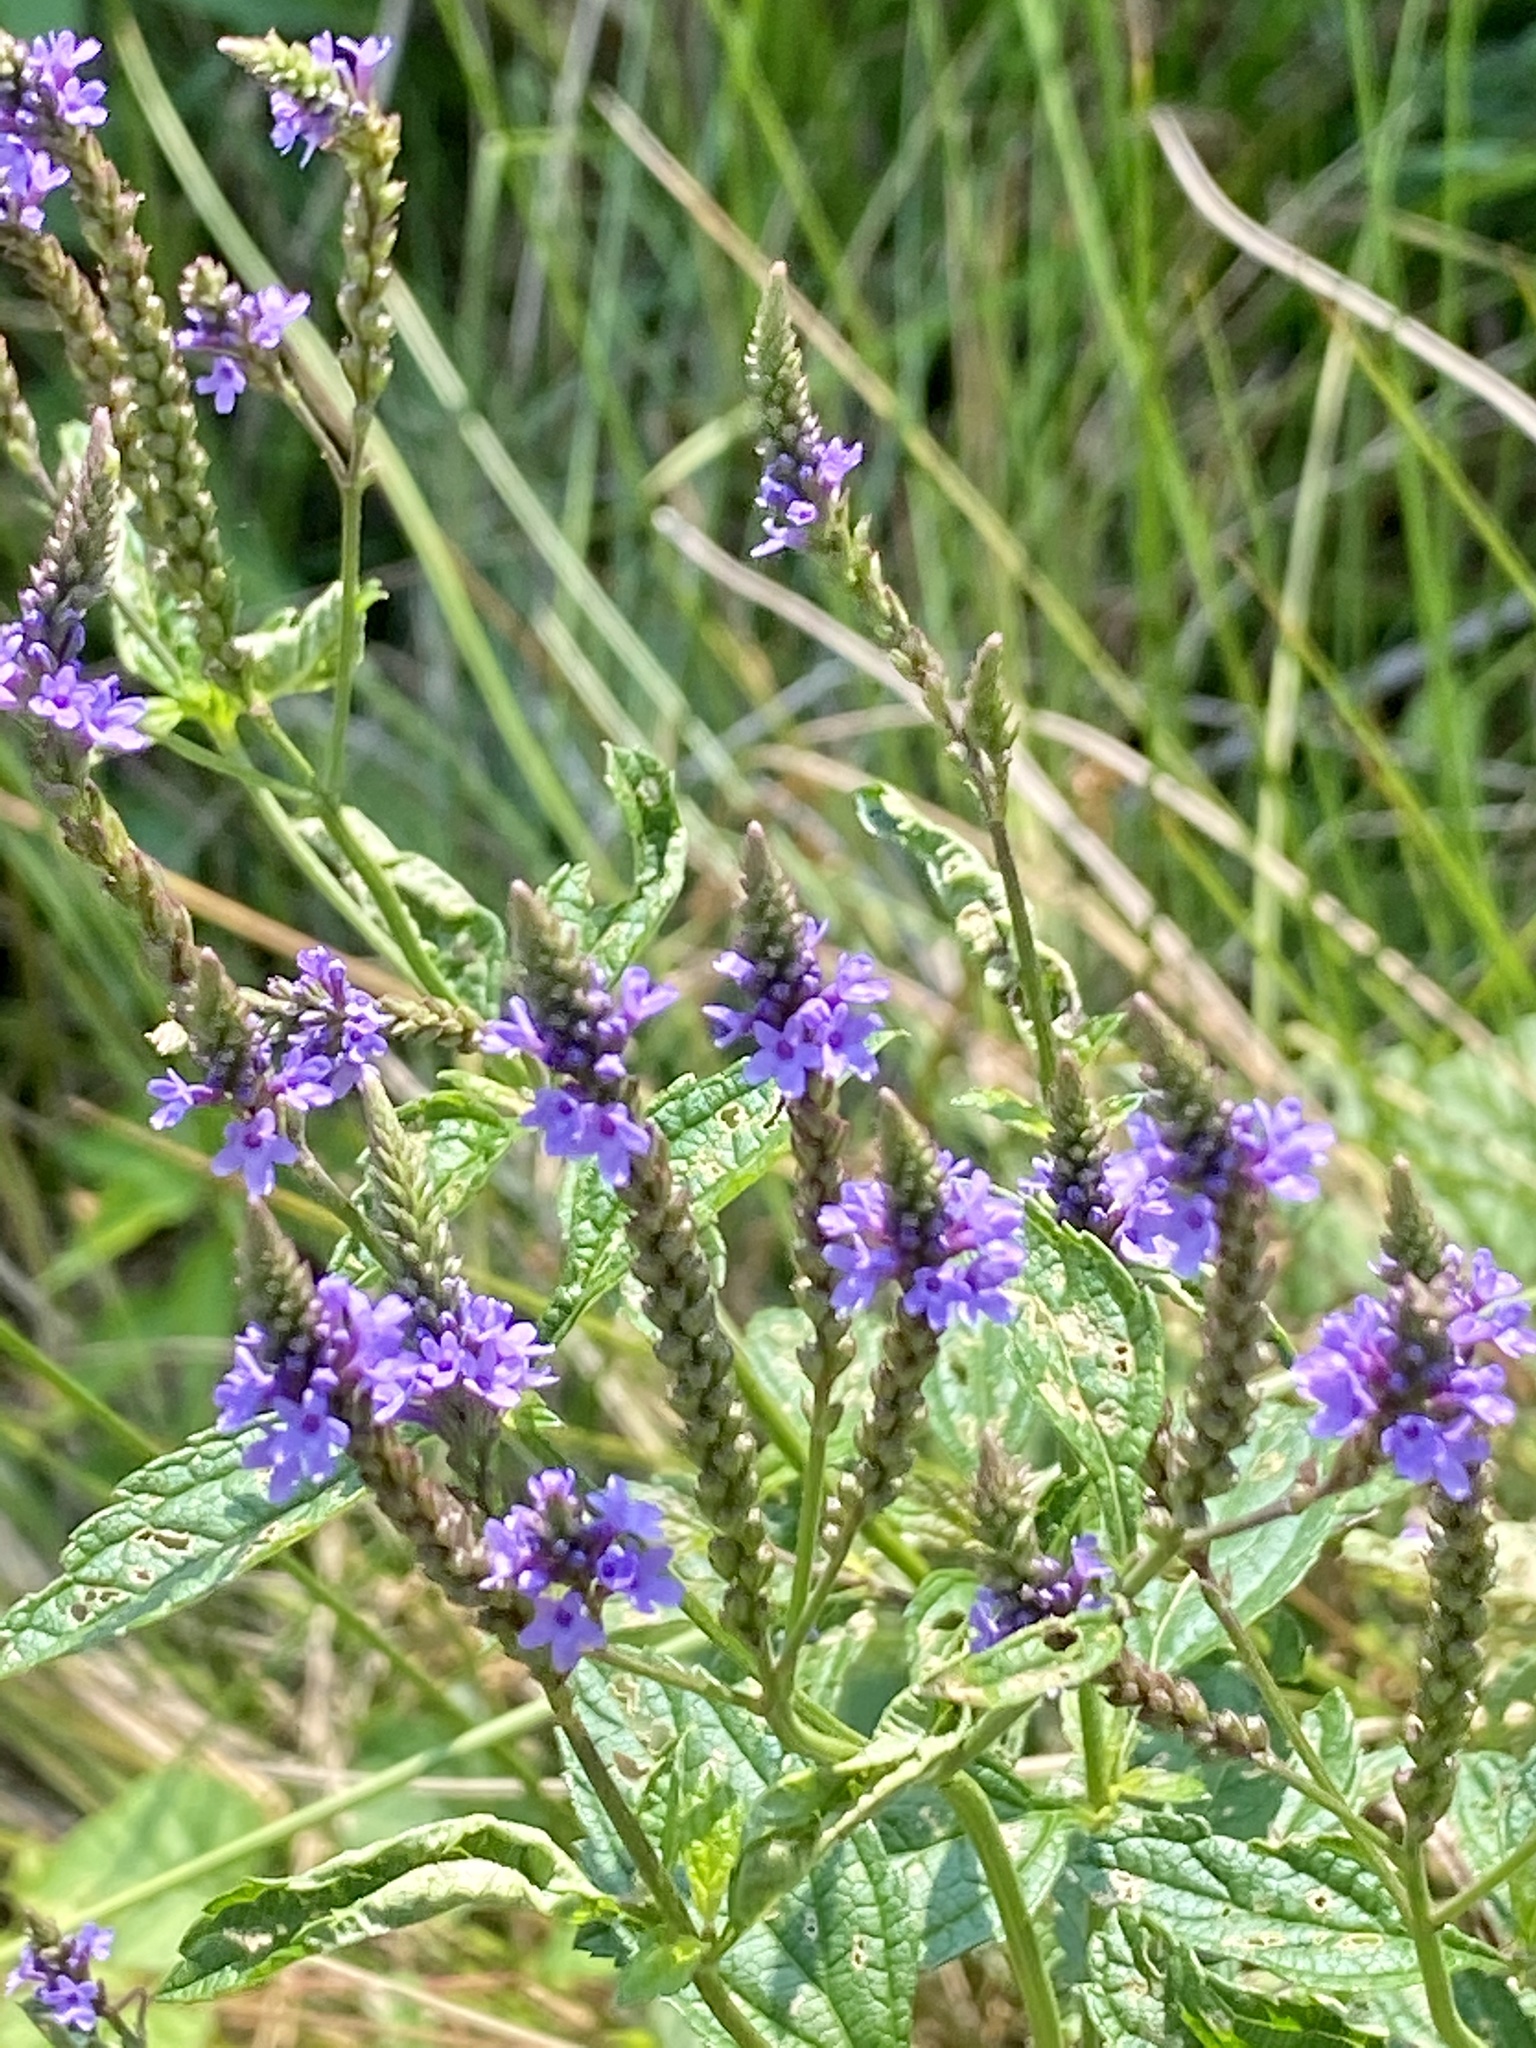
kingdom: Plantae
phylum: Tracheophyta
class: Magnoliopsida
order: Lamiales
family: Verbenaceae
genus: Verbena
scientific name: Verbena hastata
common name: American blue vervain
